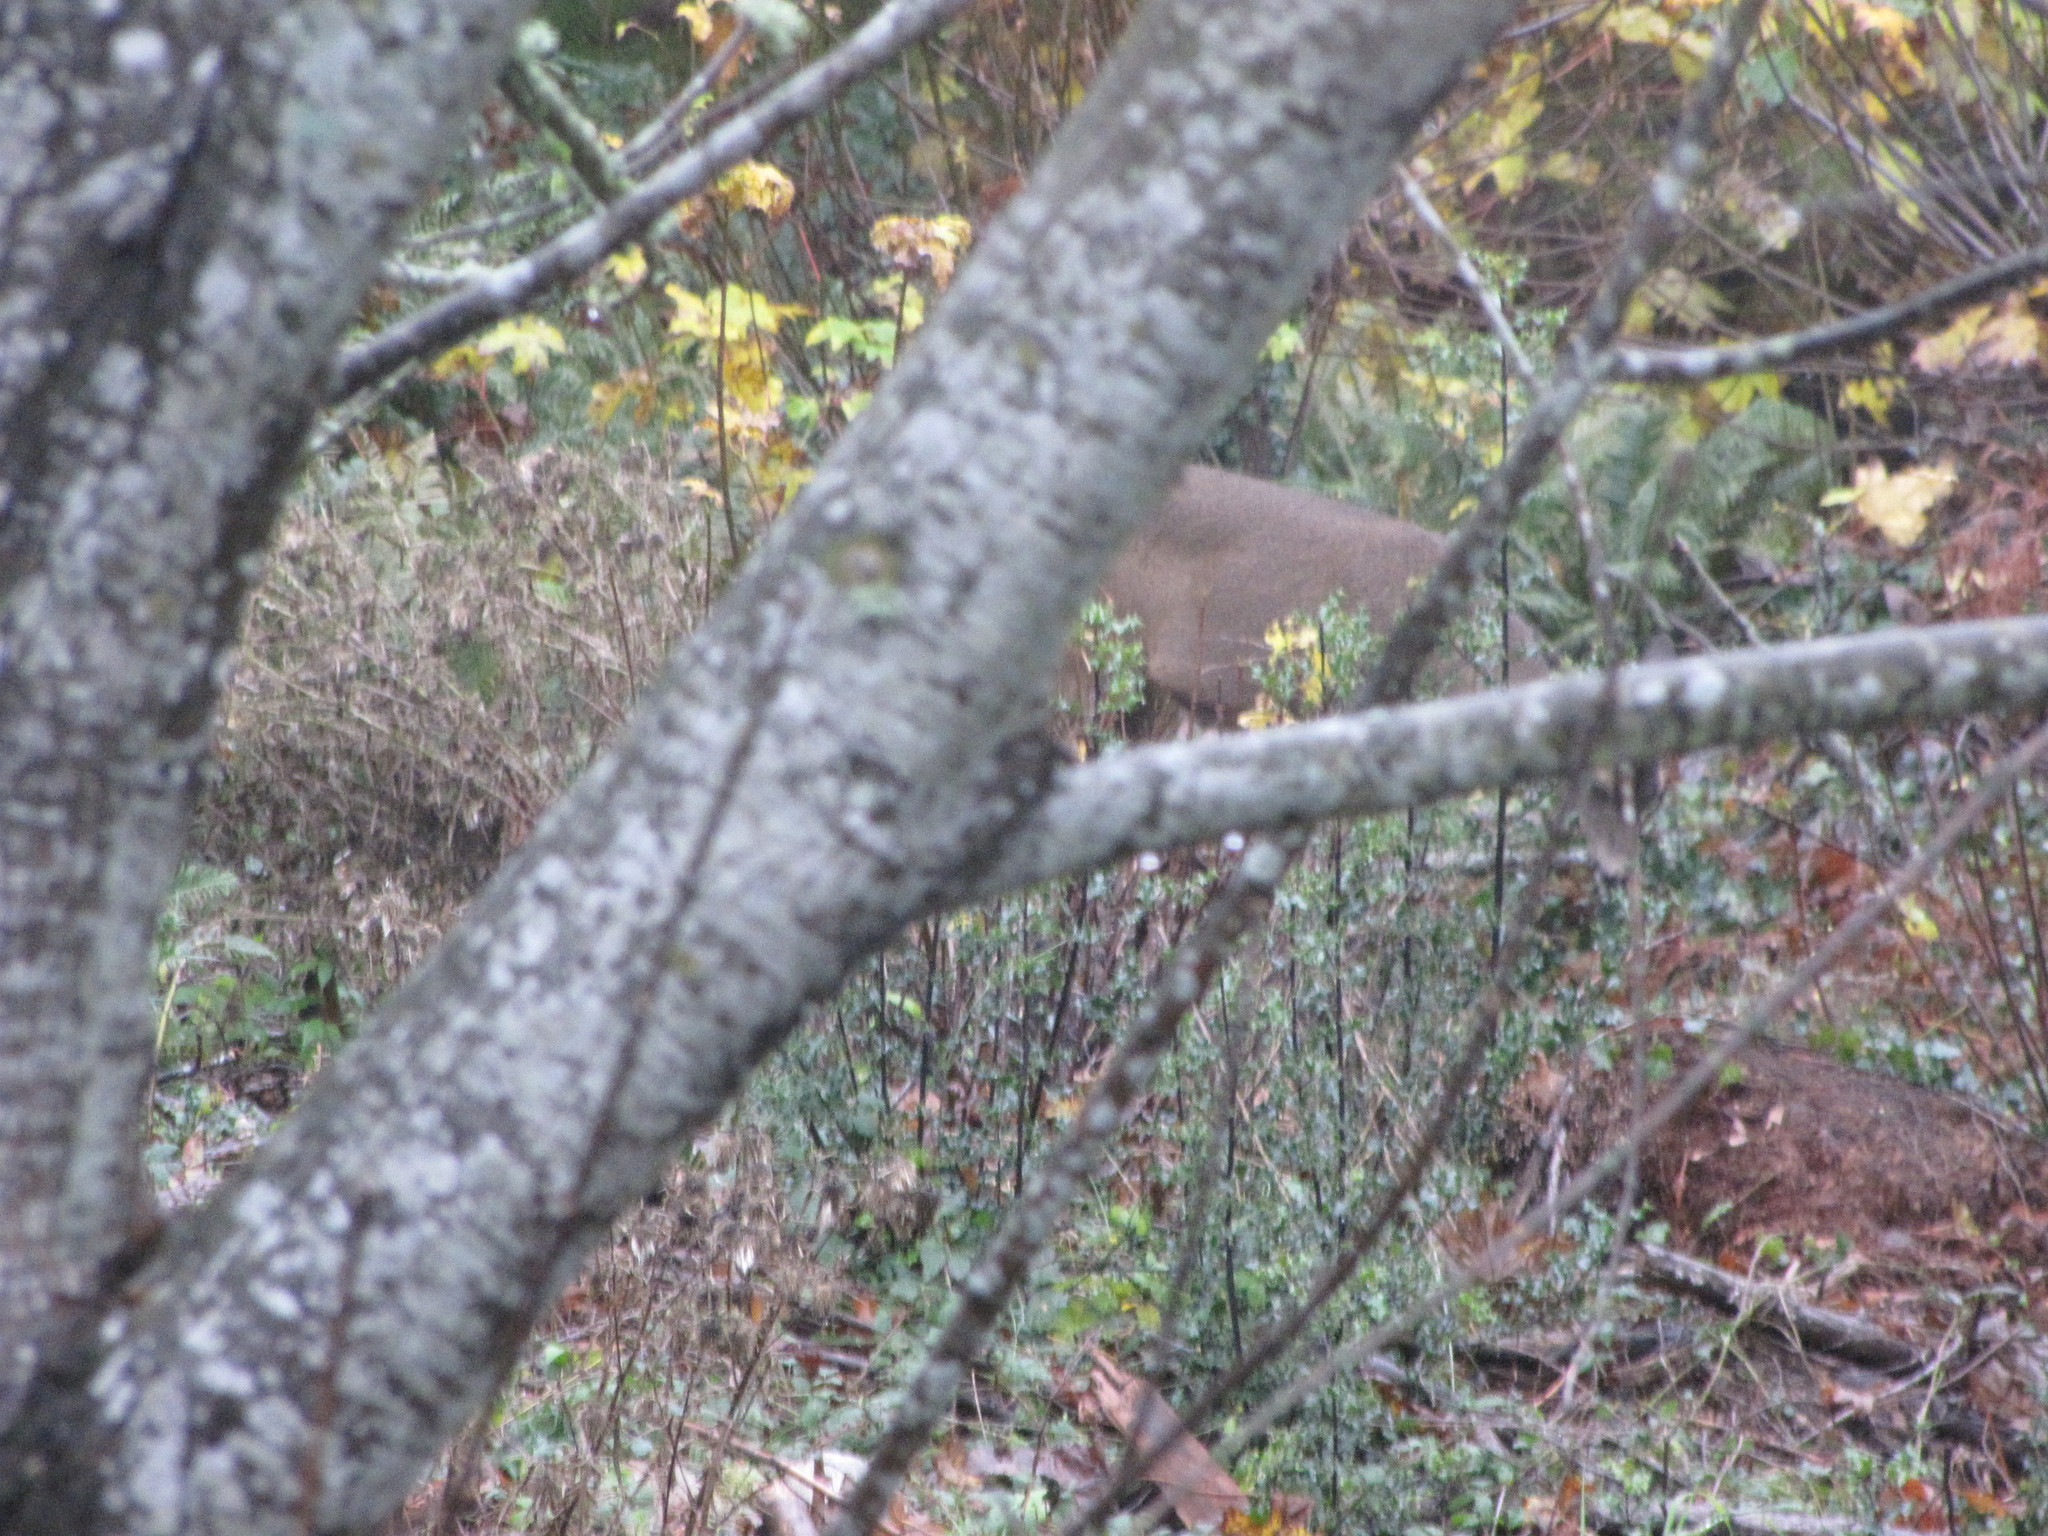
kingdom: Animalia
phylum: Chordata
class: Mammalia
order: Artiodactyla
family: Cervidae
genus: Odocoileus
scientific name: Odocoileus hemionus
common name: Mule deer
